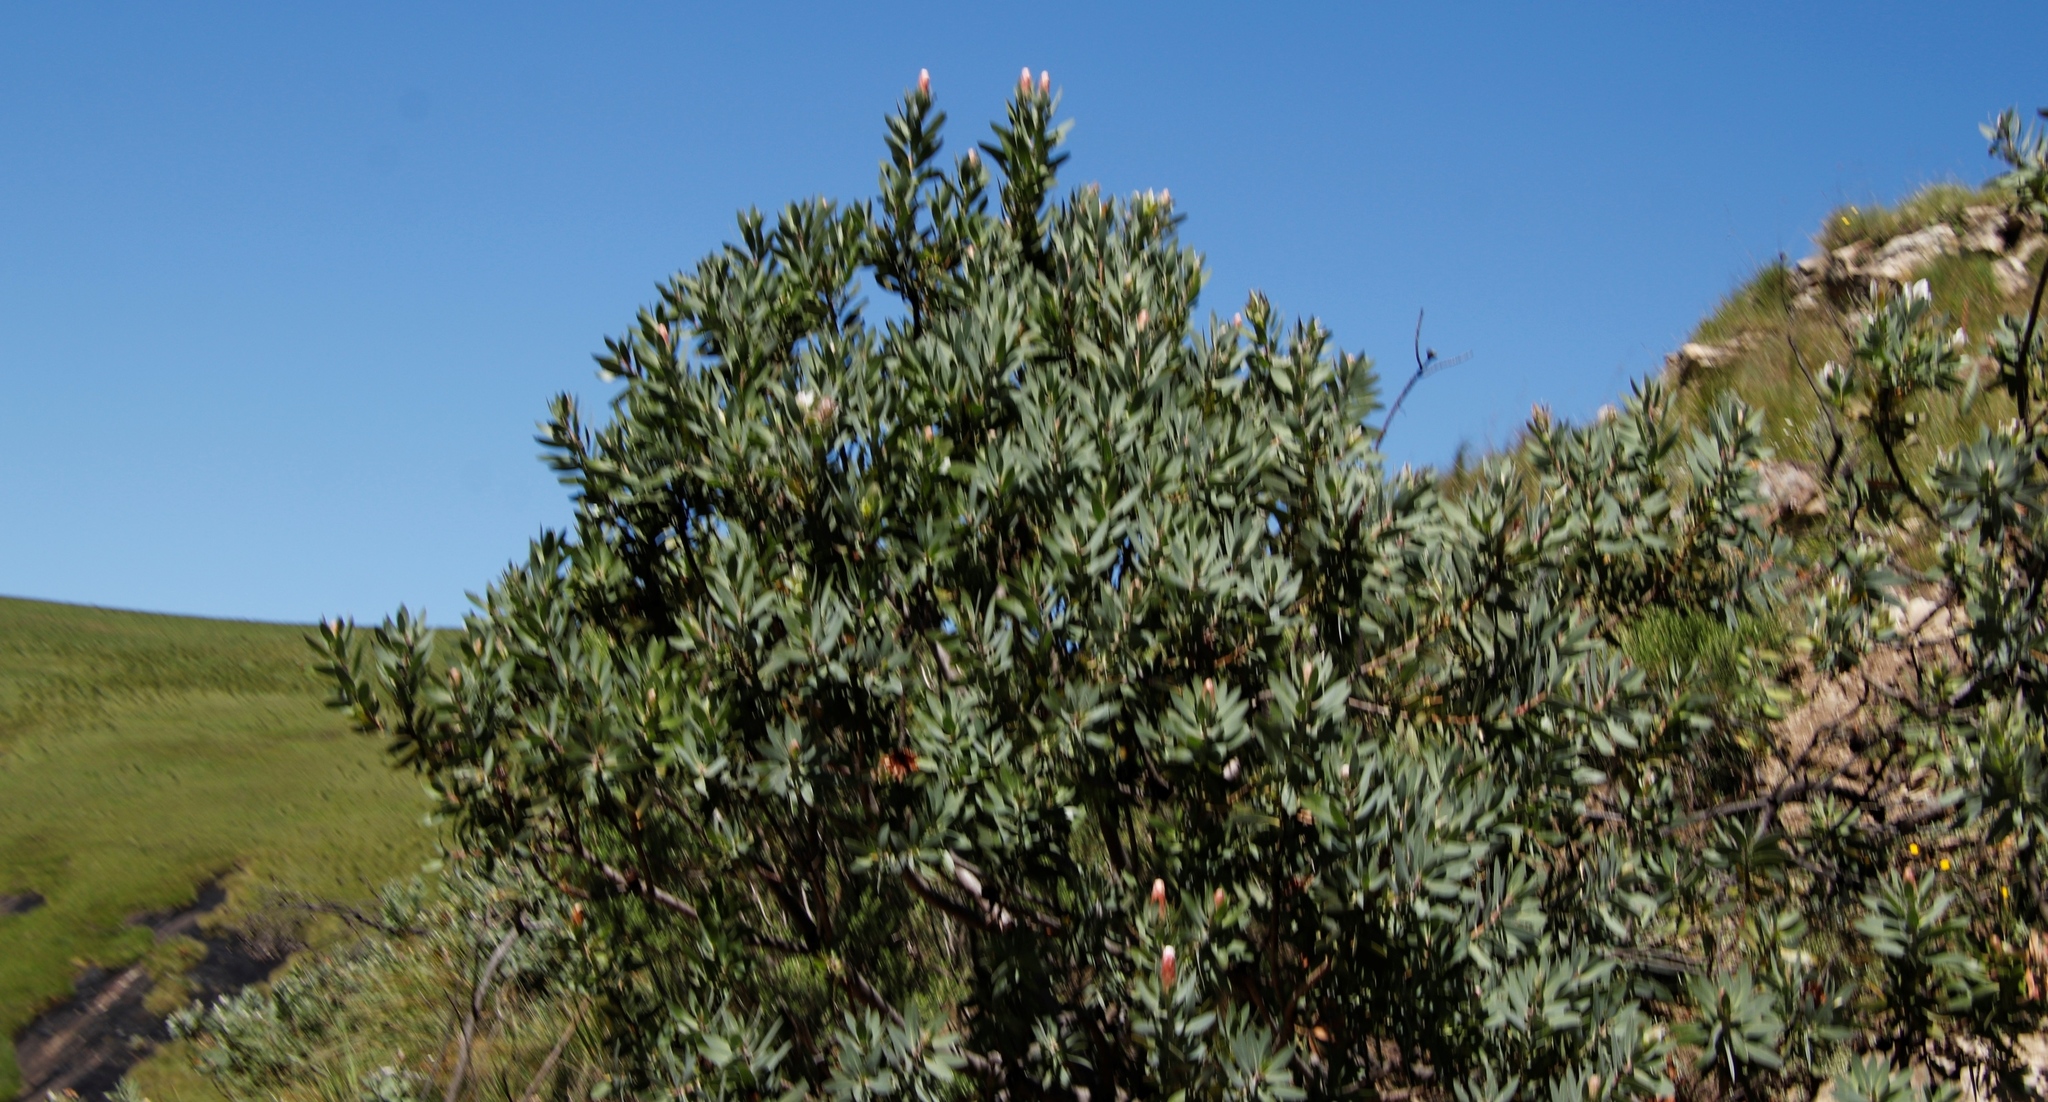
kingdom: Plantae
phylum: Tracheophyta
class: Magnoliopsida
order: Proteales
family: Proteaceae
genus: Protea
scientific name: Protea subvestita
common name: Lip-flower sugarbush
